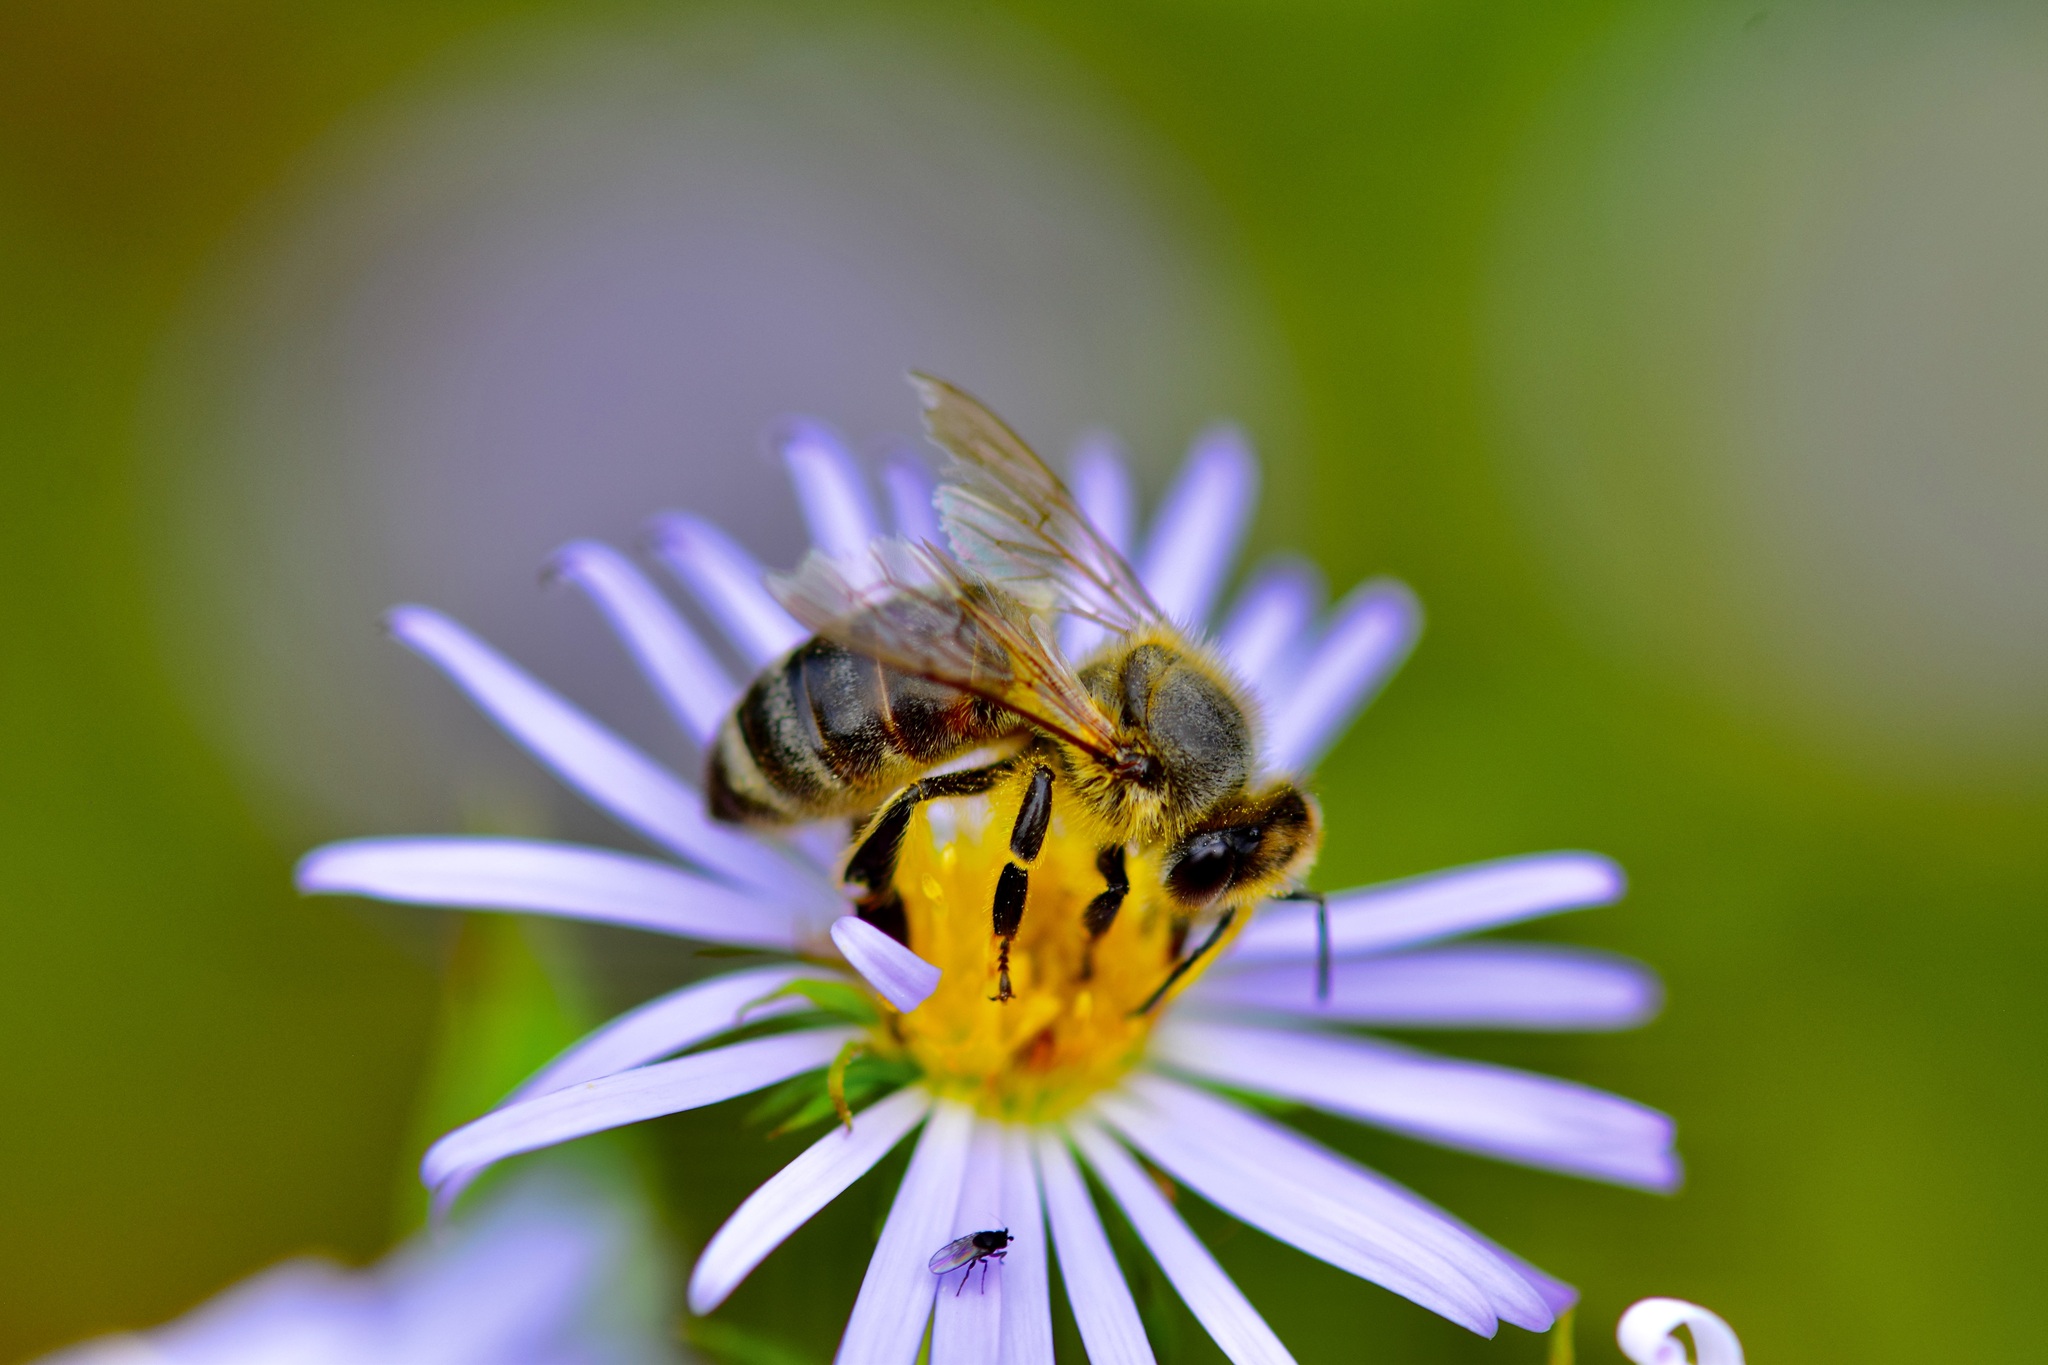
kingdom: Animalia
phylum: Arthropoda
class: Insecta
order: Hymenoptera
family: Apidae
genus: Apis
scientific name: Apis mellifera
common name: Honey bee
